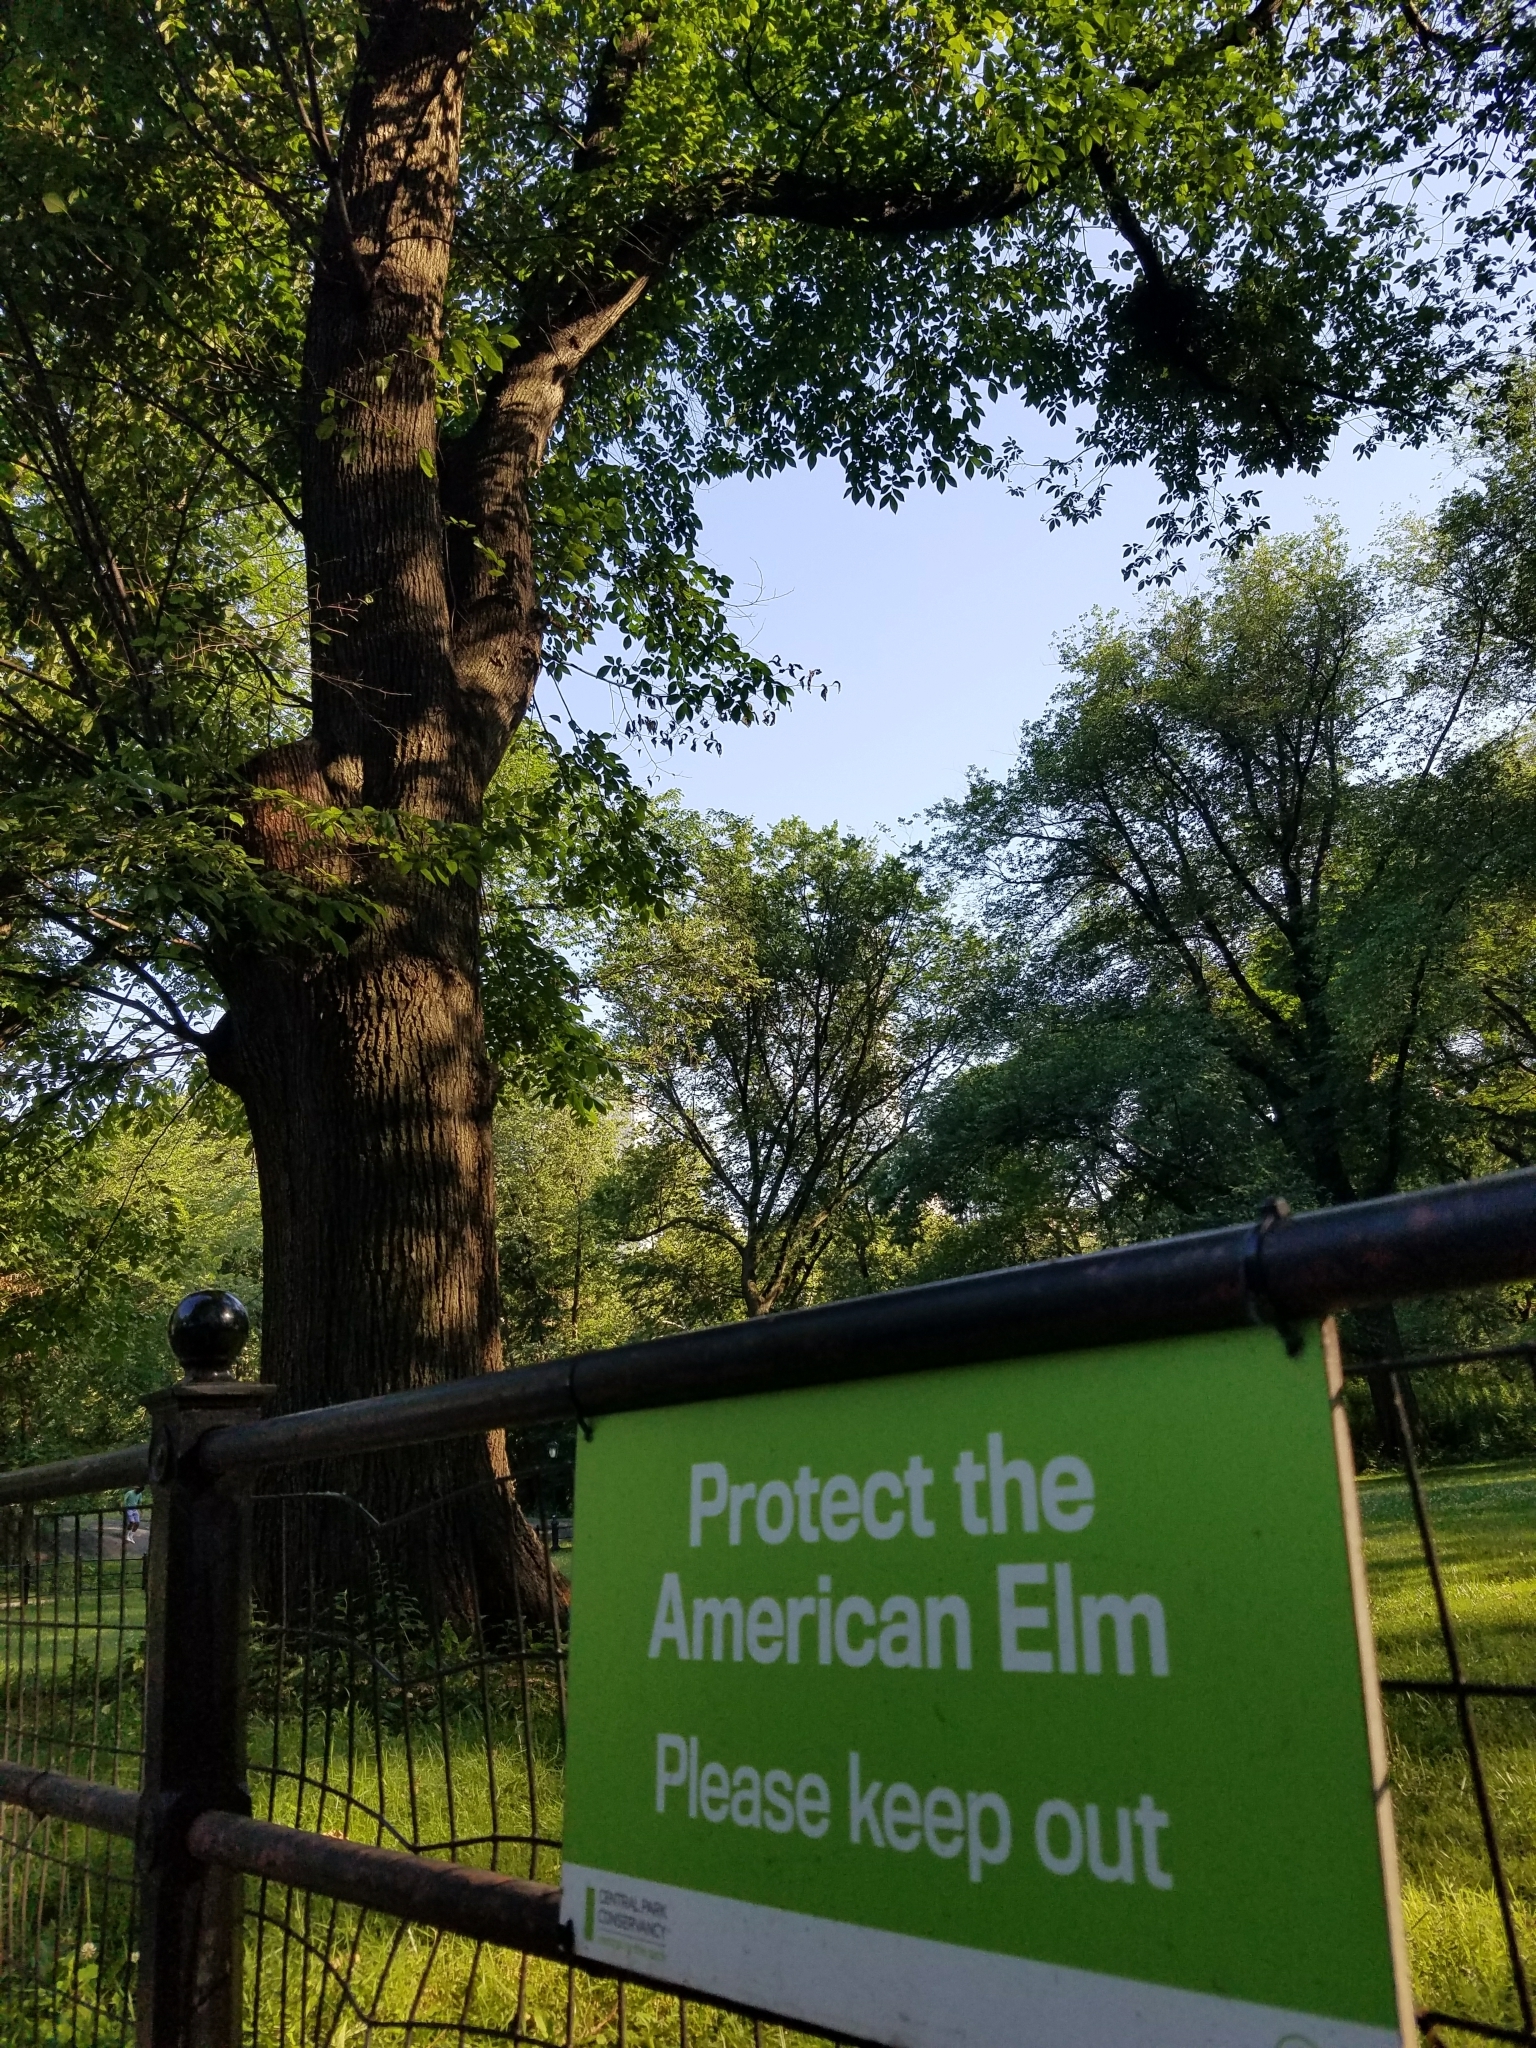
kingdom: Plantae
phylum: Tracheophyta
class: Magnoliopsida
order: Rosales
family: Ulmaceae
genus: Ulmus
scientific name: Ulmus americana
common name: American elm
